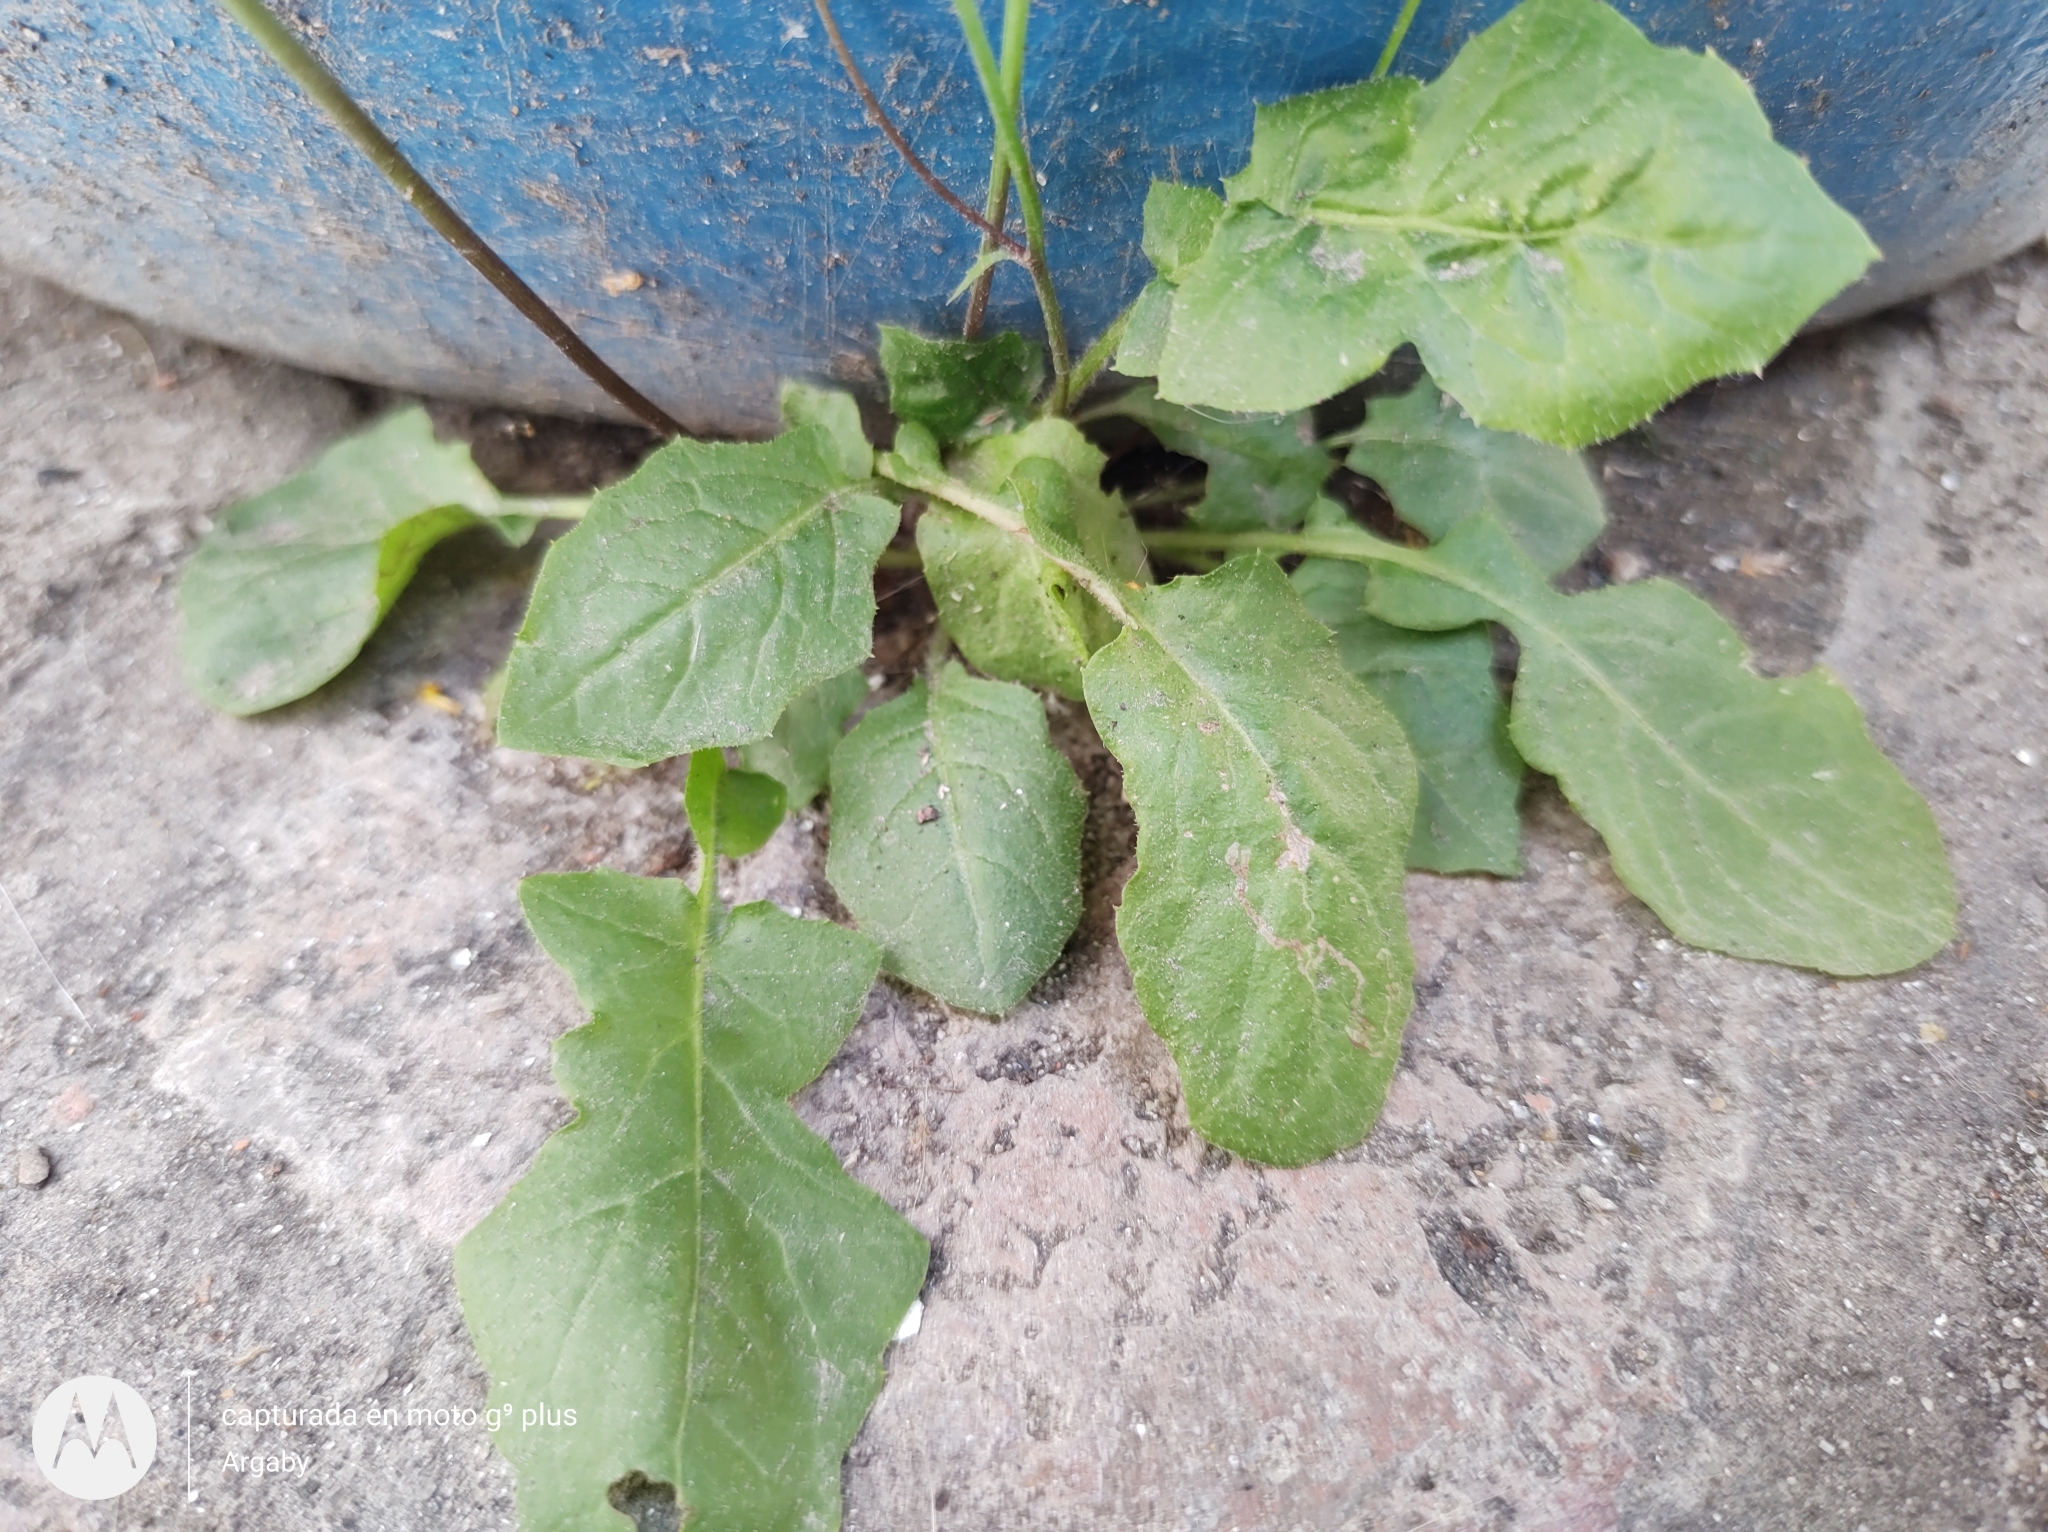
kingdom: Plantae
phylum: Tracheophyta
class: Magnoliopsida
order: Asterales
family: Asteraceae
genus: Youngia
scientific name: Youngia japonica
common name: Oriental false hawksbeard
